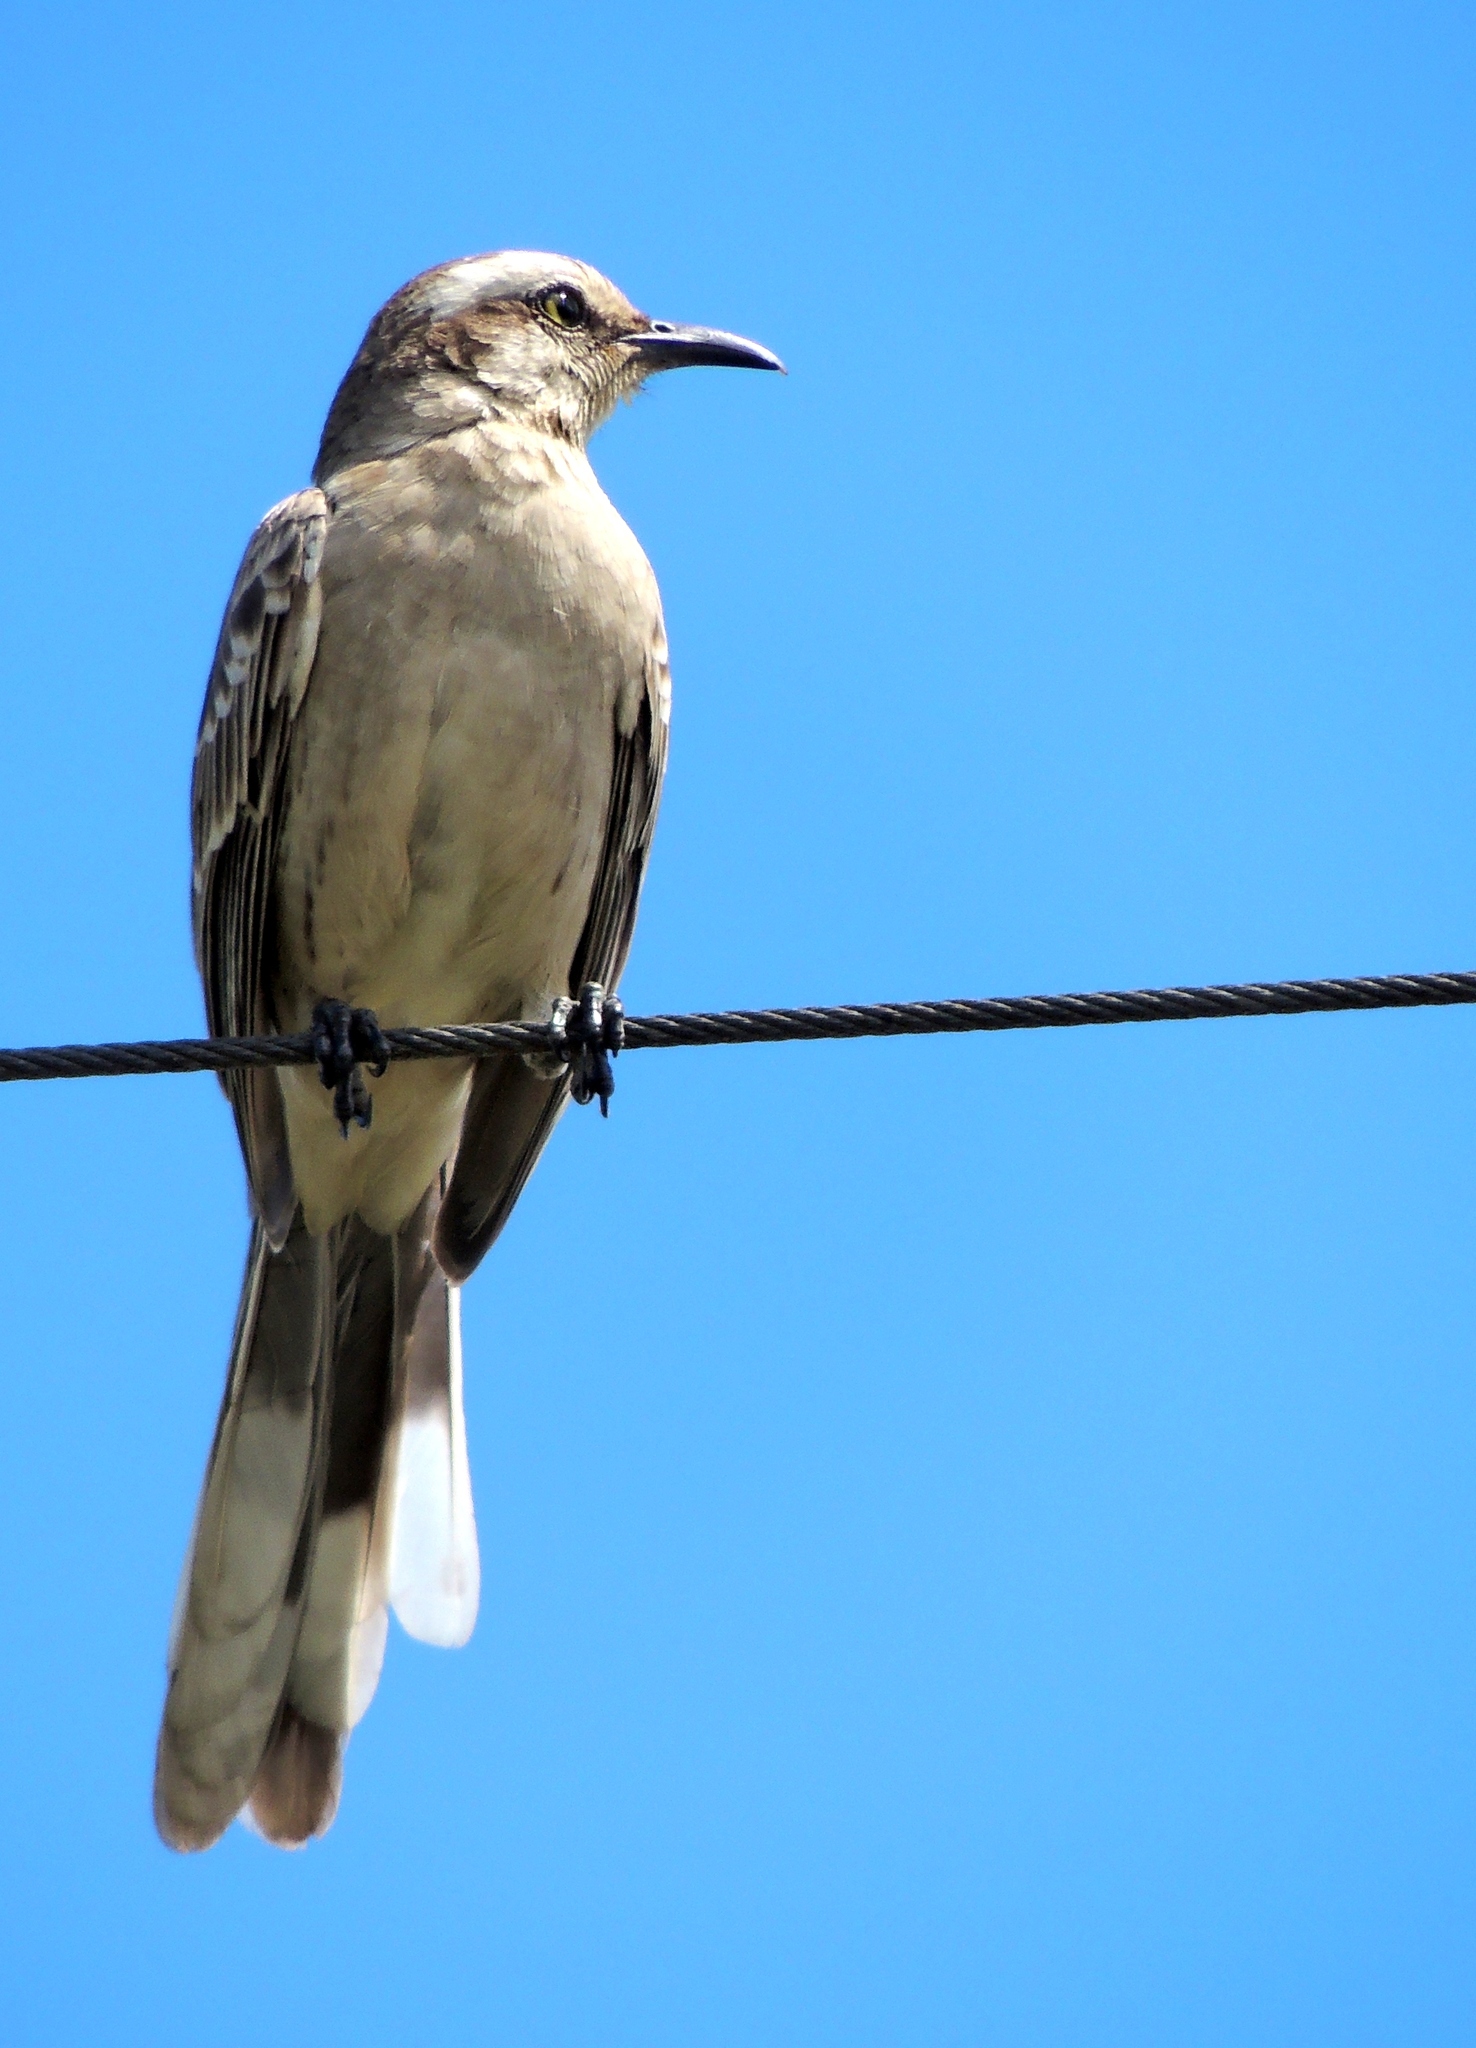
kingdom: Animalia
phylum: Chordata
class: Aves
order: Passeriformes
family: Mimidae
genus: Mimus
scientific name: Mimus saturninus
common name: Chalk-browed mockingbird
